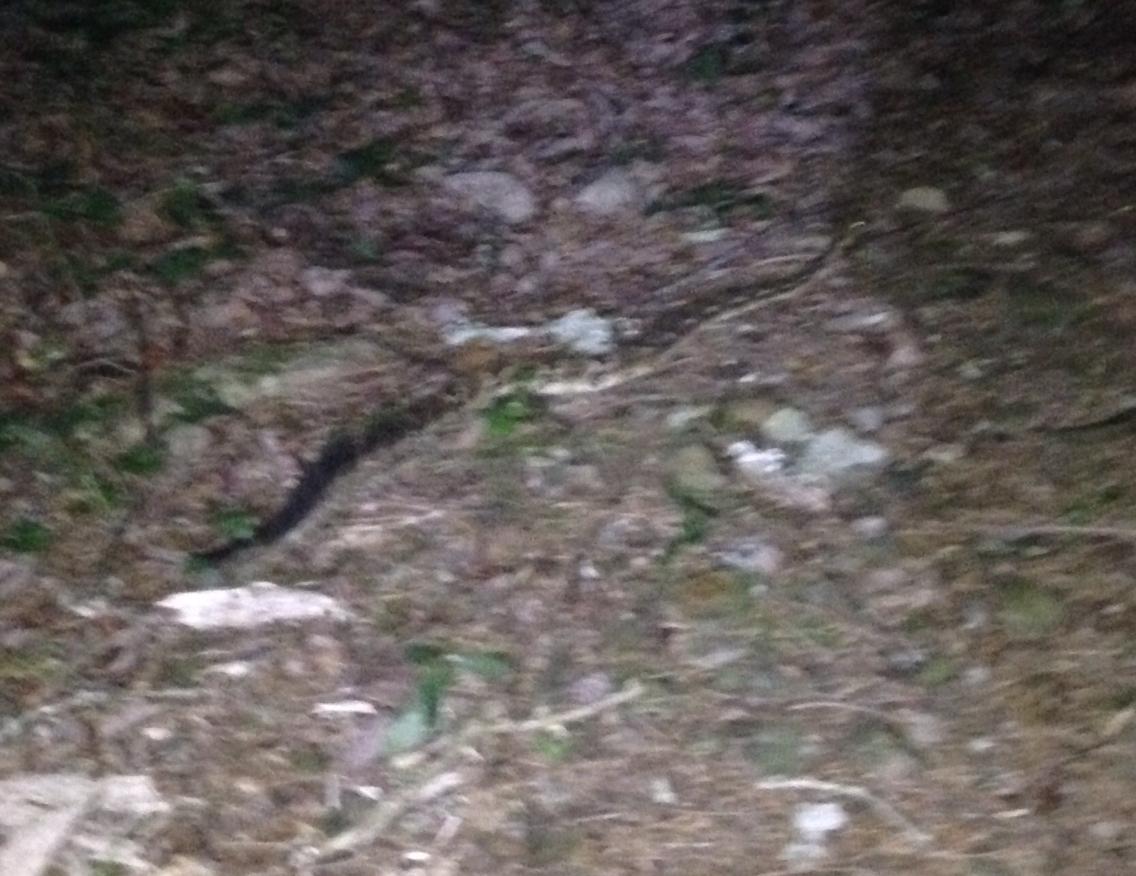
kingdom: Animalia
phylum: Chordata
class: Squamata
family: Viperidae
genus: Crotalus
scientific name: Crotalus horridus
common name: Timber rattlesnake
